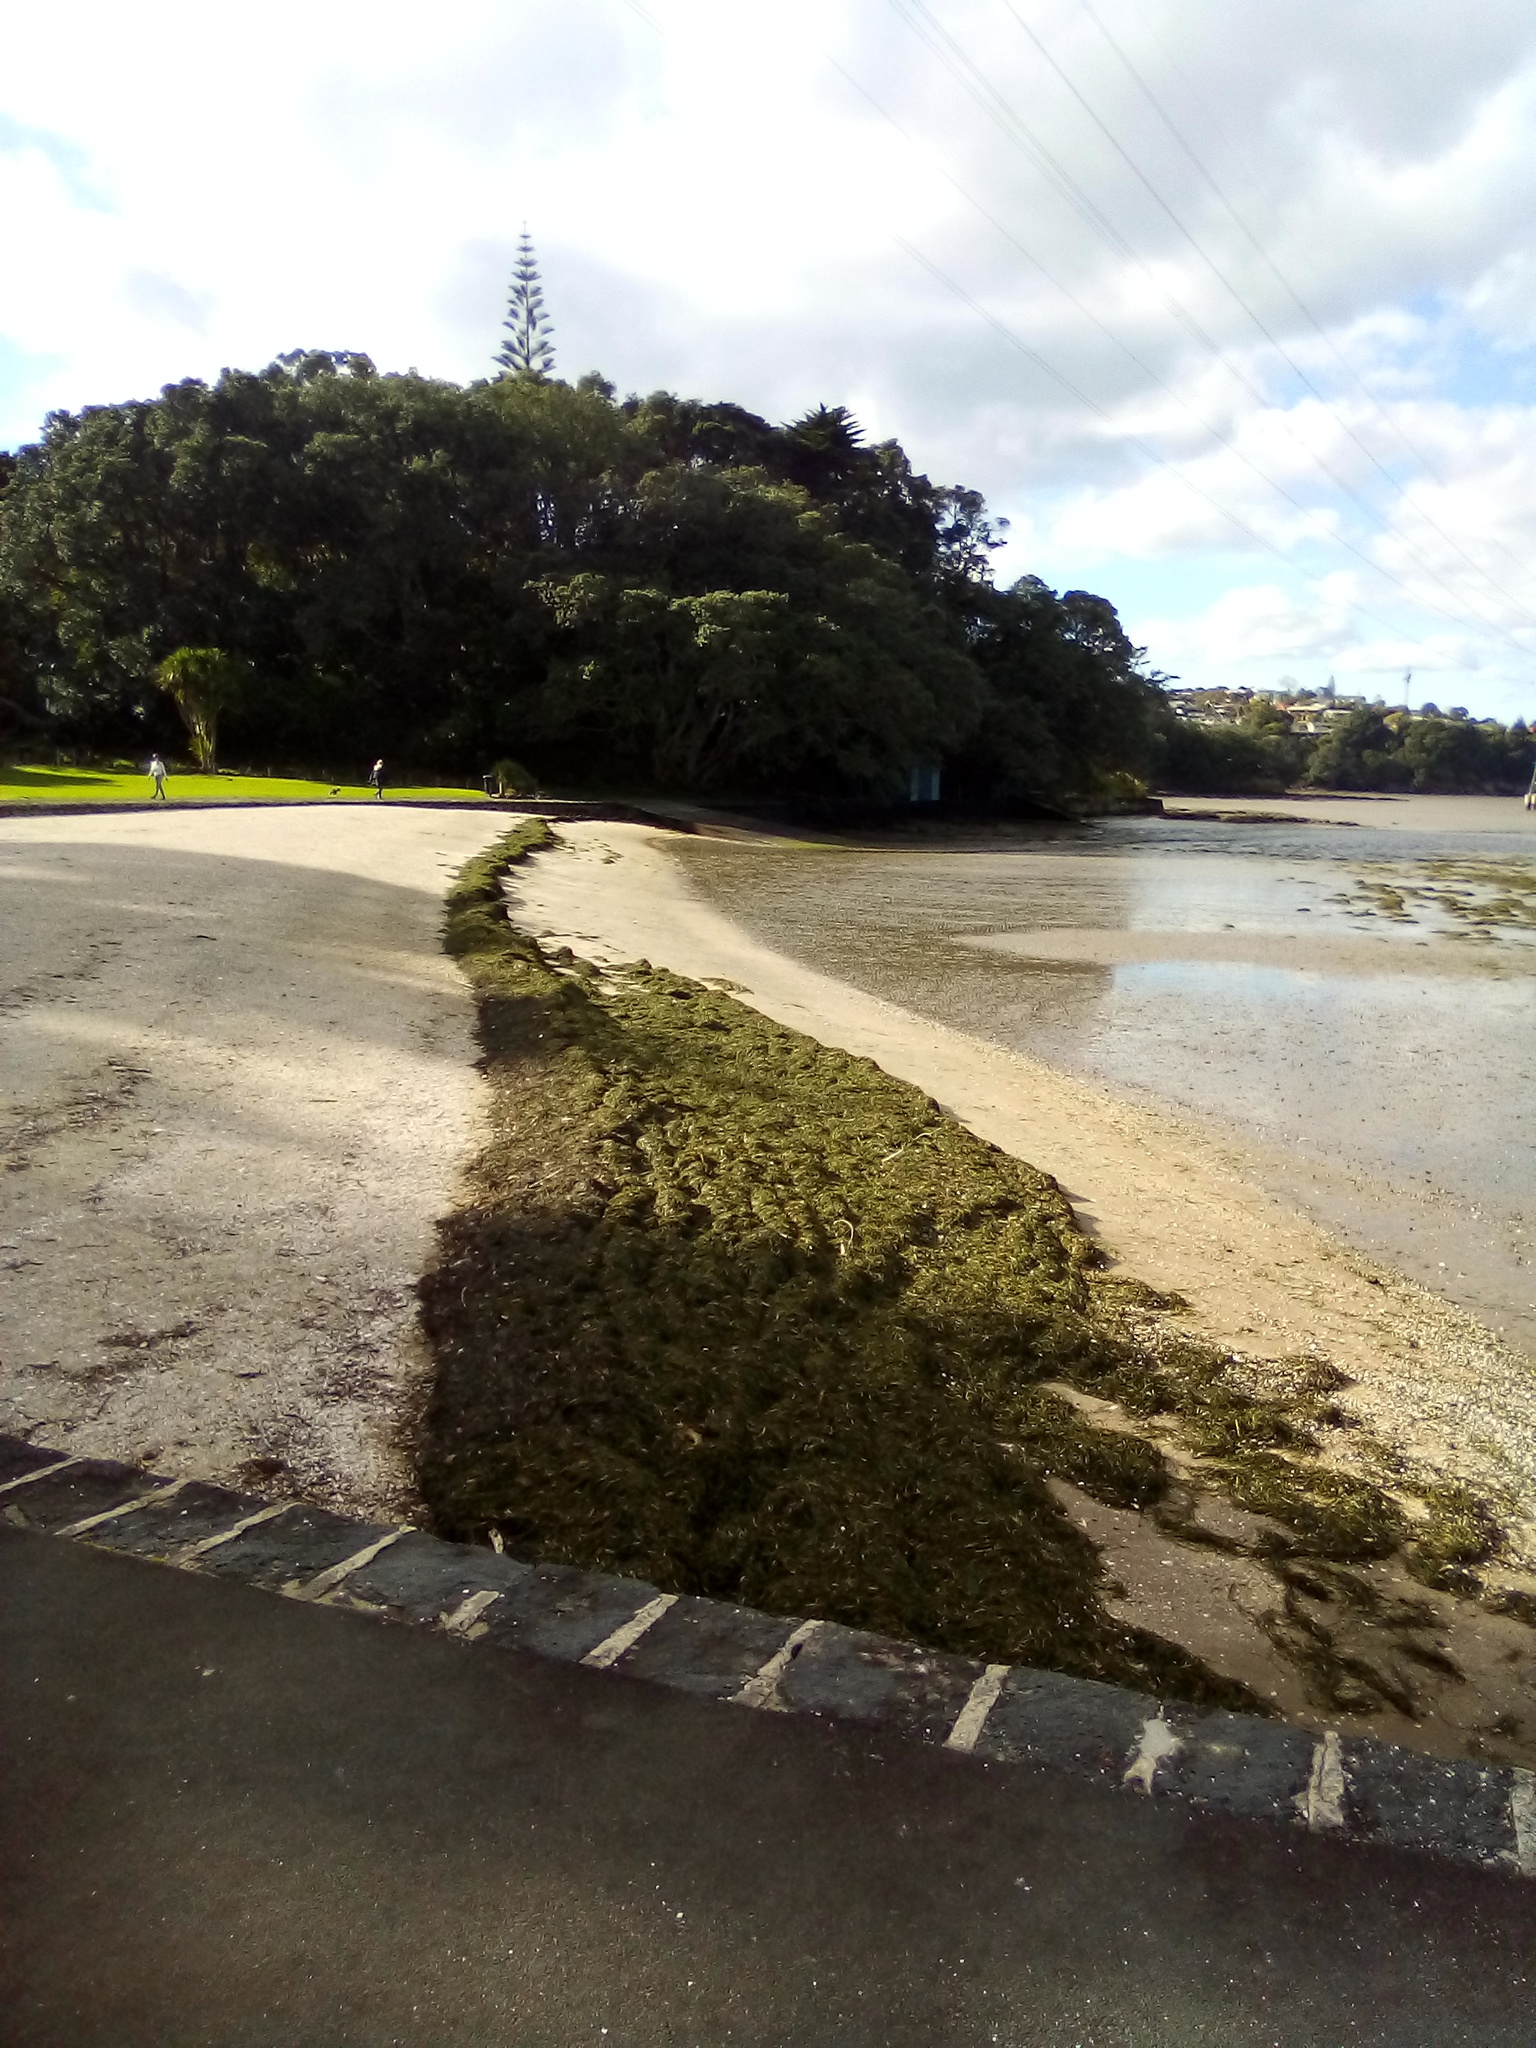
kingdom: Plantae
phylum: Tracheophyta
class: Liliopsida
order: Alismatales
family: Zosteraceae
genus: Zostera
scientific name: Zostera novazelandica
